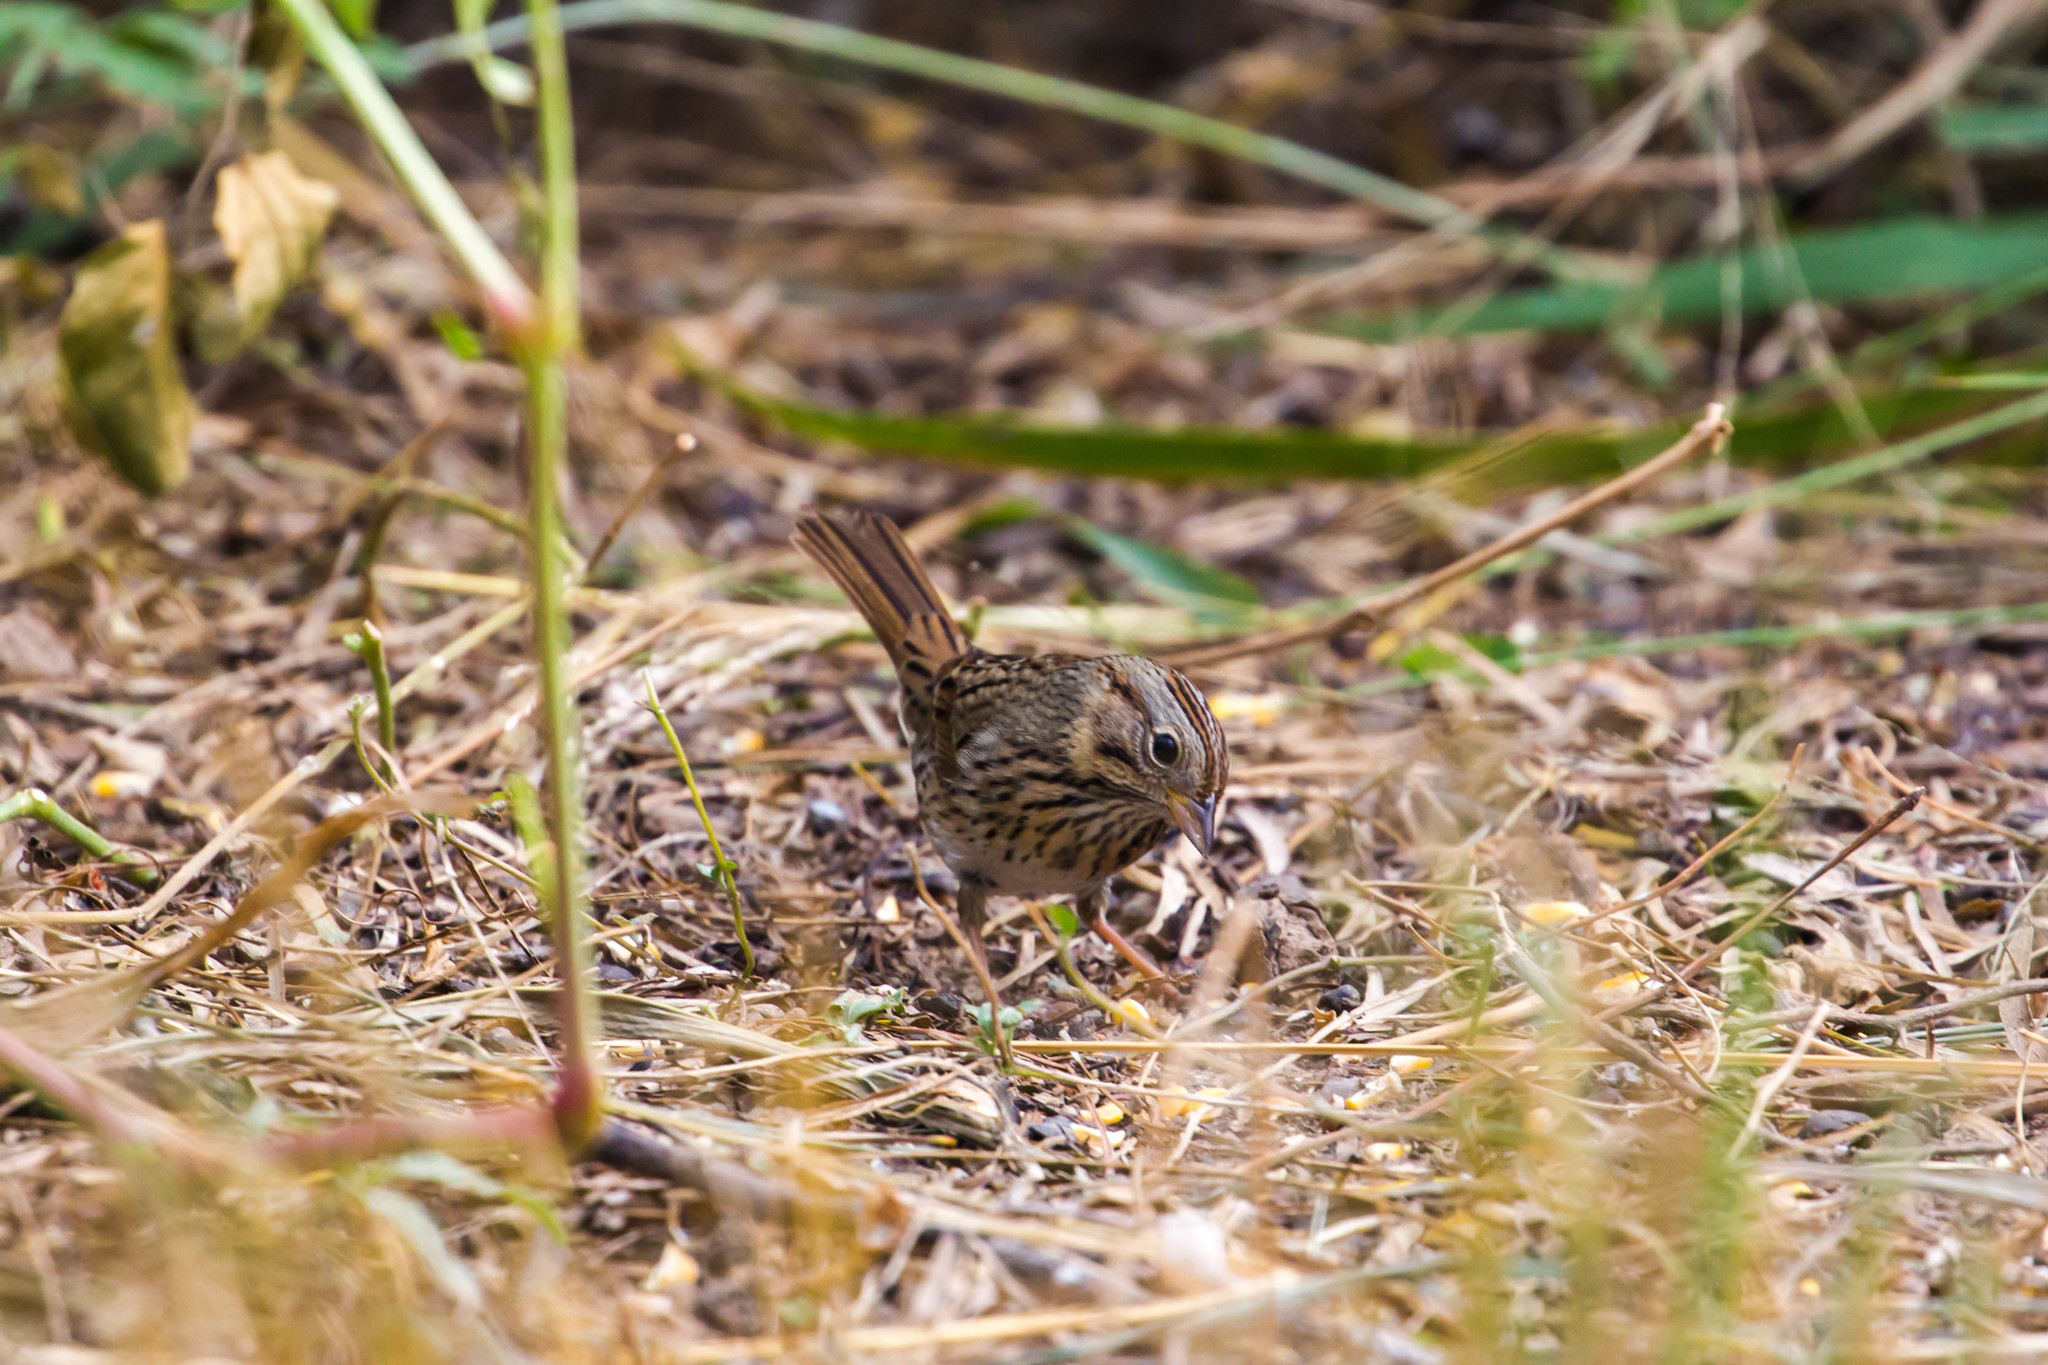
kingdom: Animalia
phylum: Chordata
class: Aves
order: Passeriformes
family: Passerellidae
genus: Melospiza
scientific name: Melospiza lincolnii
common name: Lincoln's sparrow
